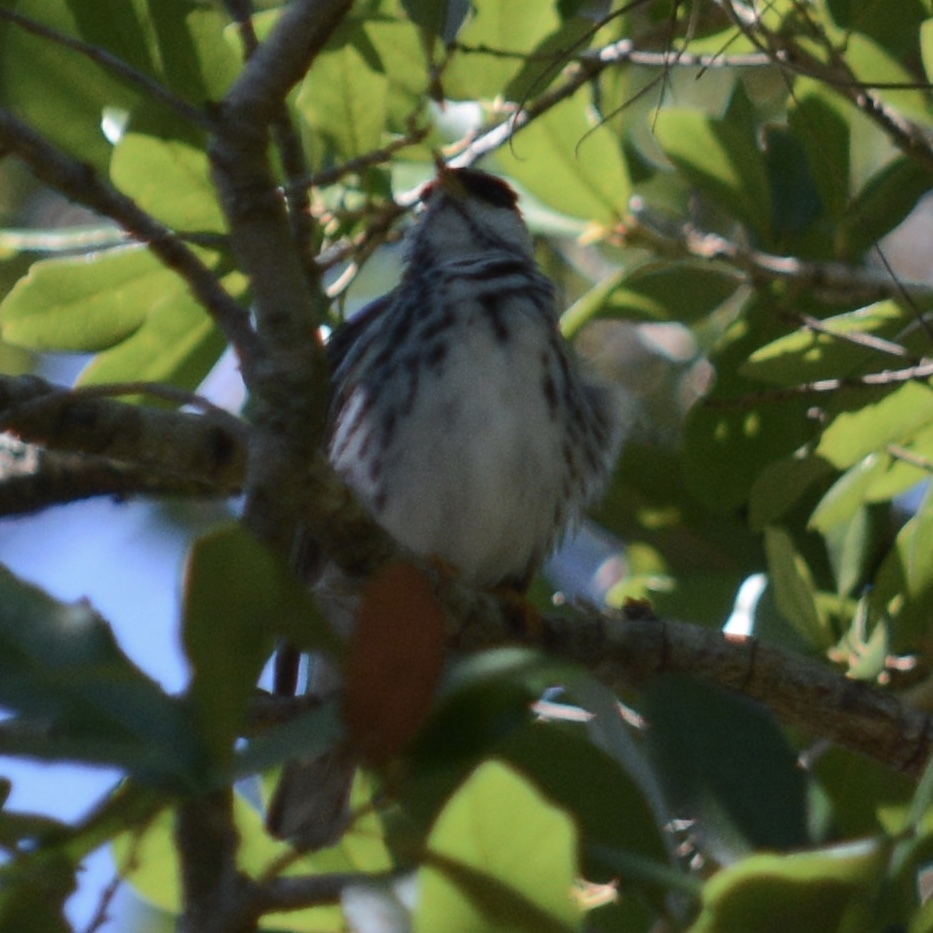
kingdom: Animalia
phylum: Chordata
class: Aves
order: Passeriformes
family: Parulidae
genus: Setophaga
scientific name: Setophaga striata
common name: Blackpoll warbler
